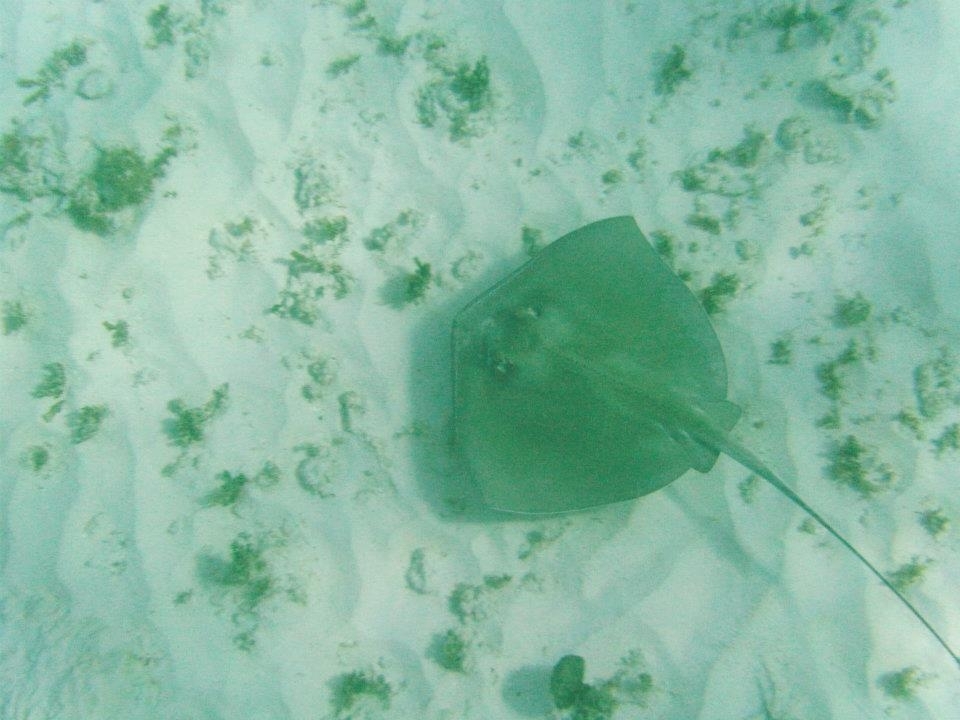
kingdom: Animalia
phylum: Chordata
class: Elasmobranchii
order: Myliobatiformes
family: Dasyatidae
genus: Hypanus
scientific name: Hypanus americanus
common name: Southern stingray
